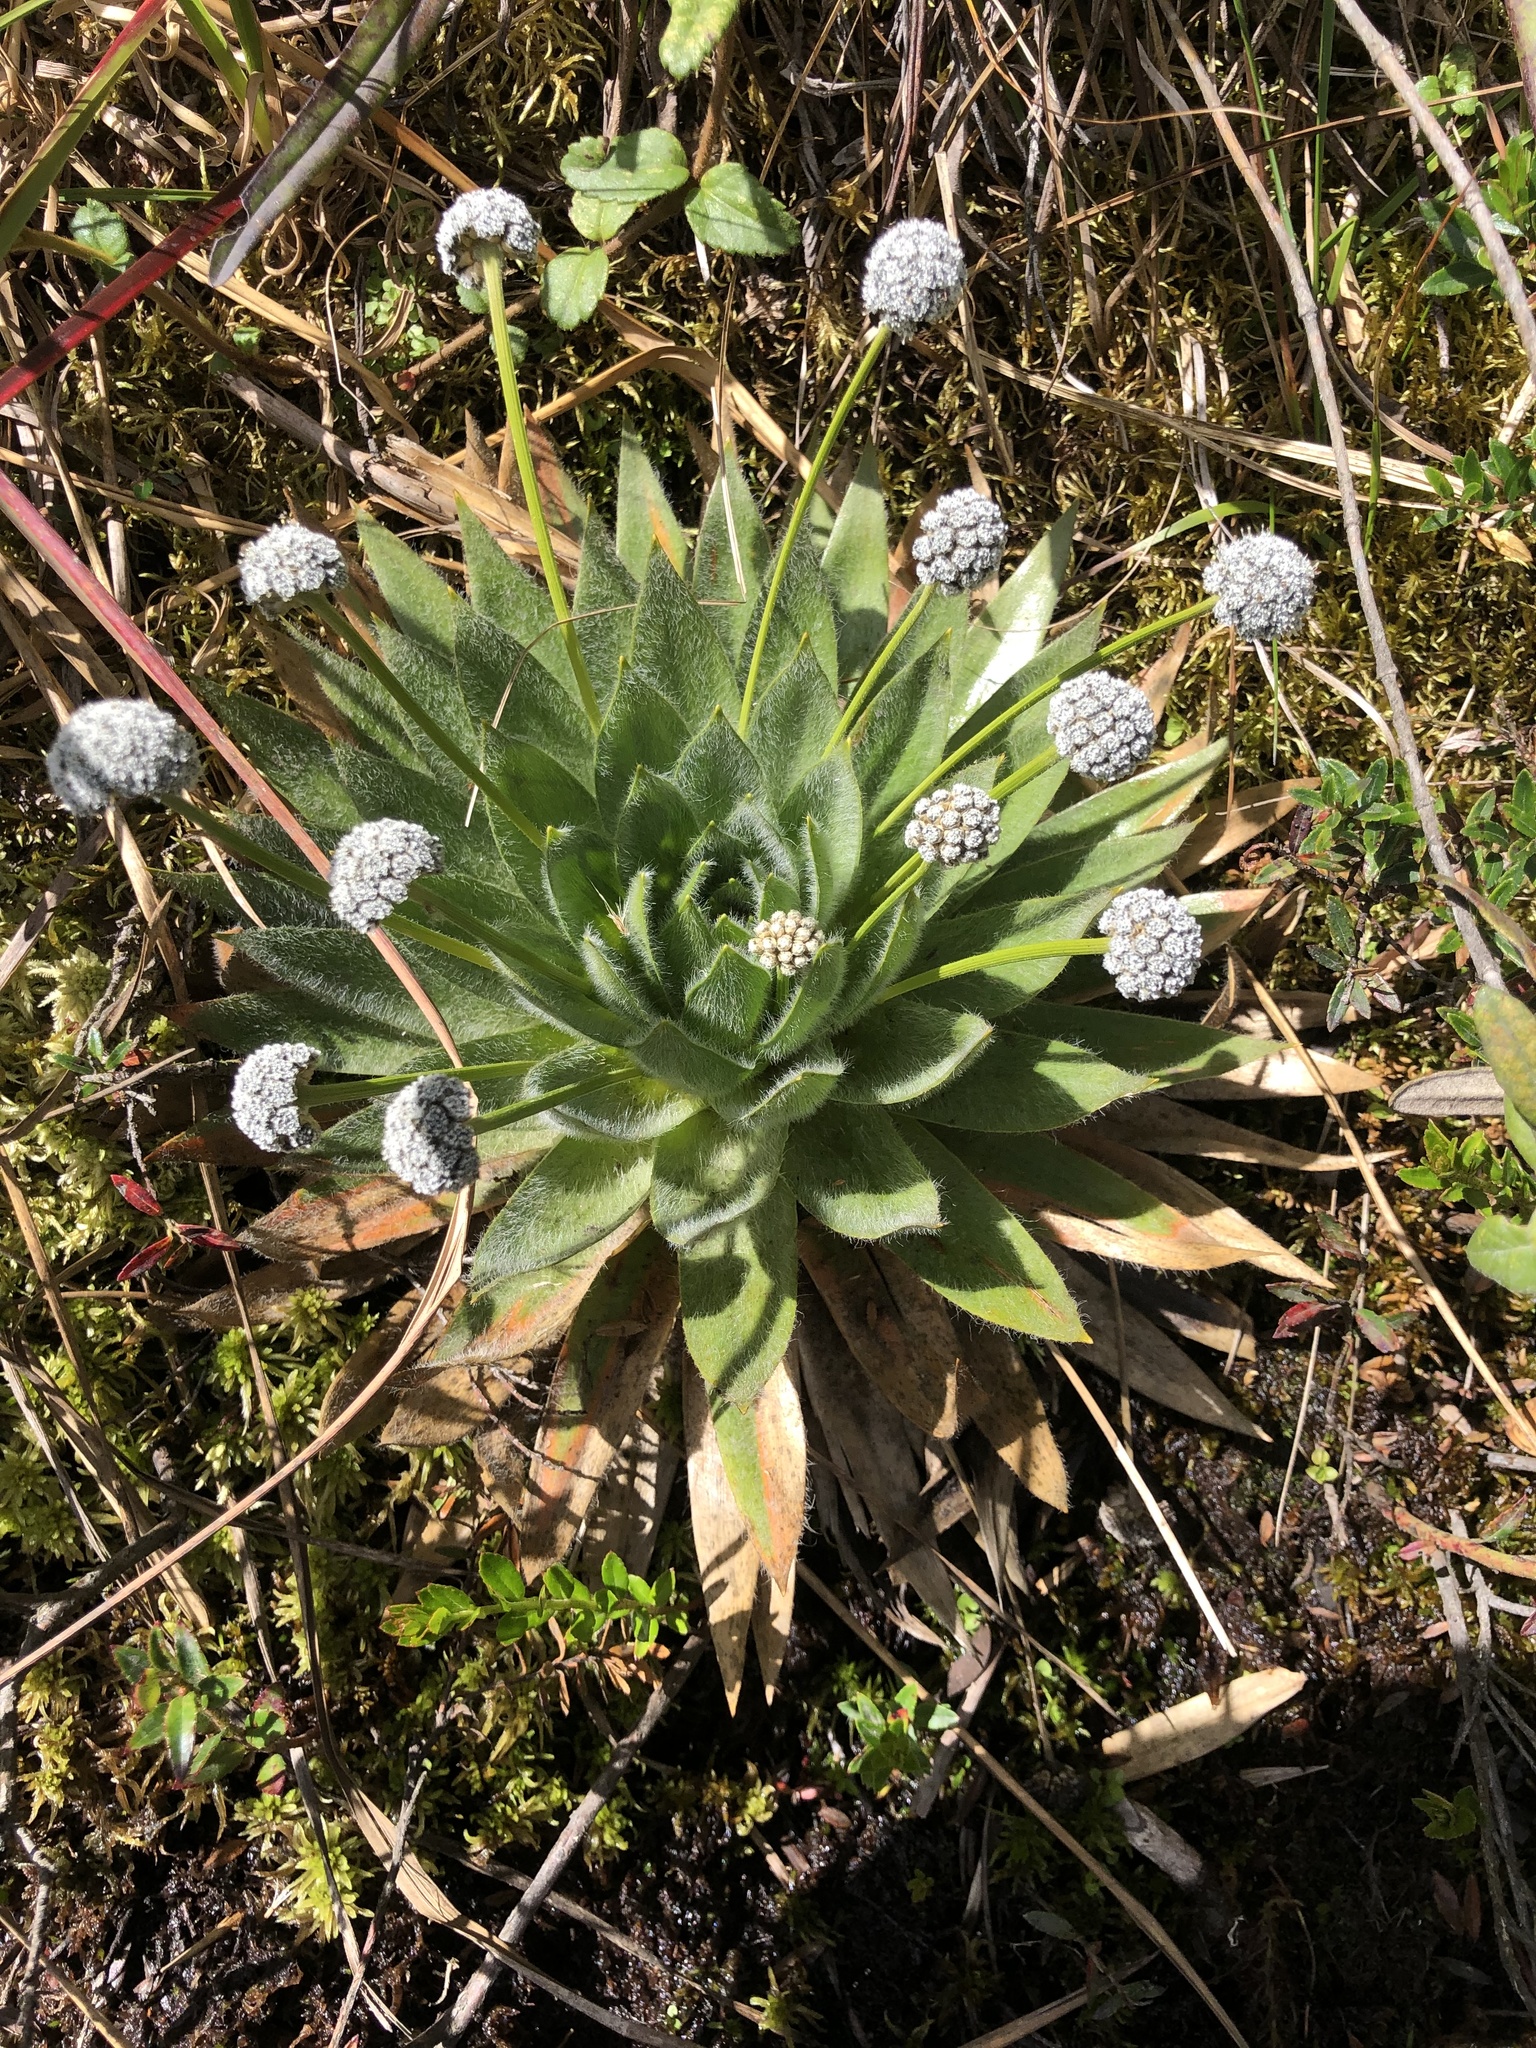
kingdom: Plantae
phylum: Tracheophyta
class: Liliopsida
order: Poales
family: Eriocaulaceae
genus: Paepalanthus
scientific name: Paepalanthus alpinus
